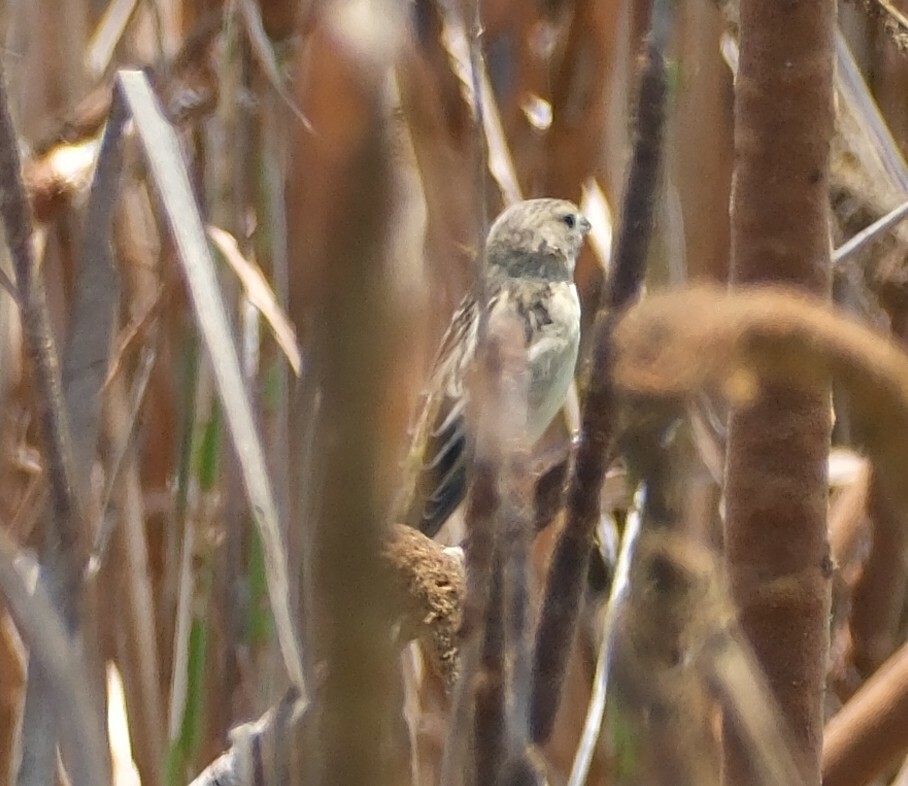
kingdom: Animalia
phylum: Chordata
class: Aves
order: Passeriformes
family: Thraupidae
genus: Sporophila
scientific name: Sporophila telasco
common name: Chestnut-throated seedeater
